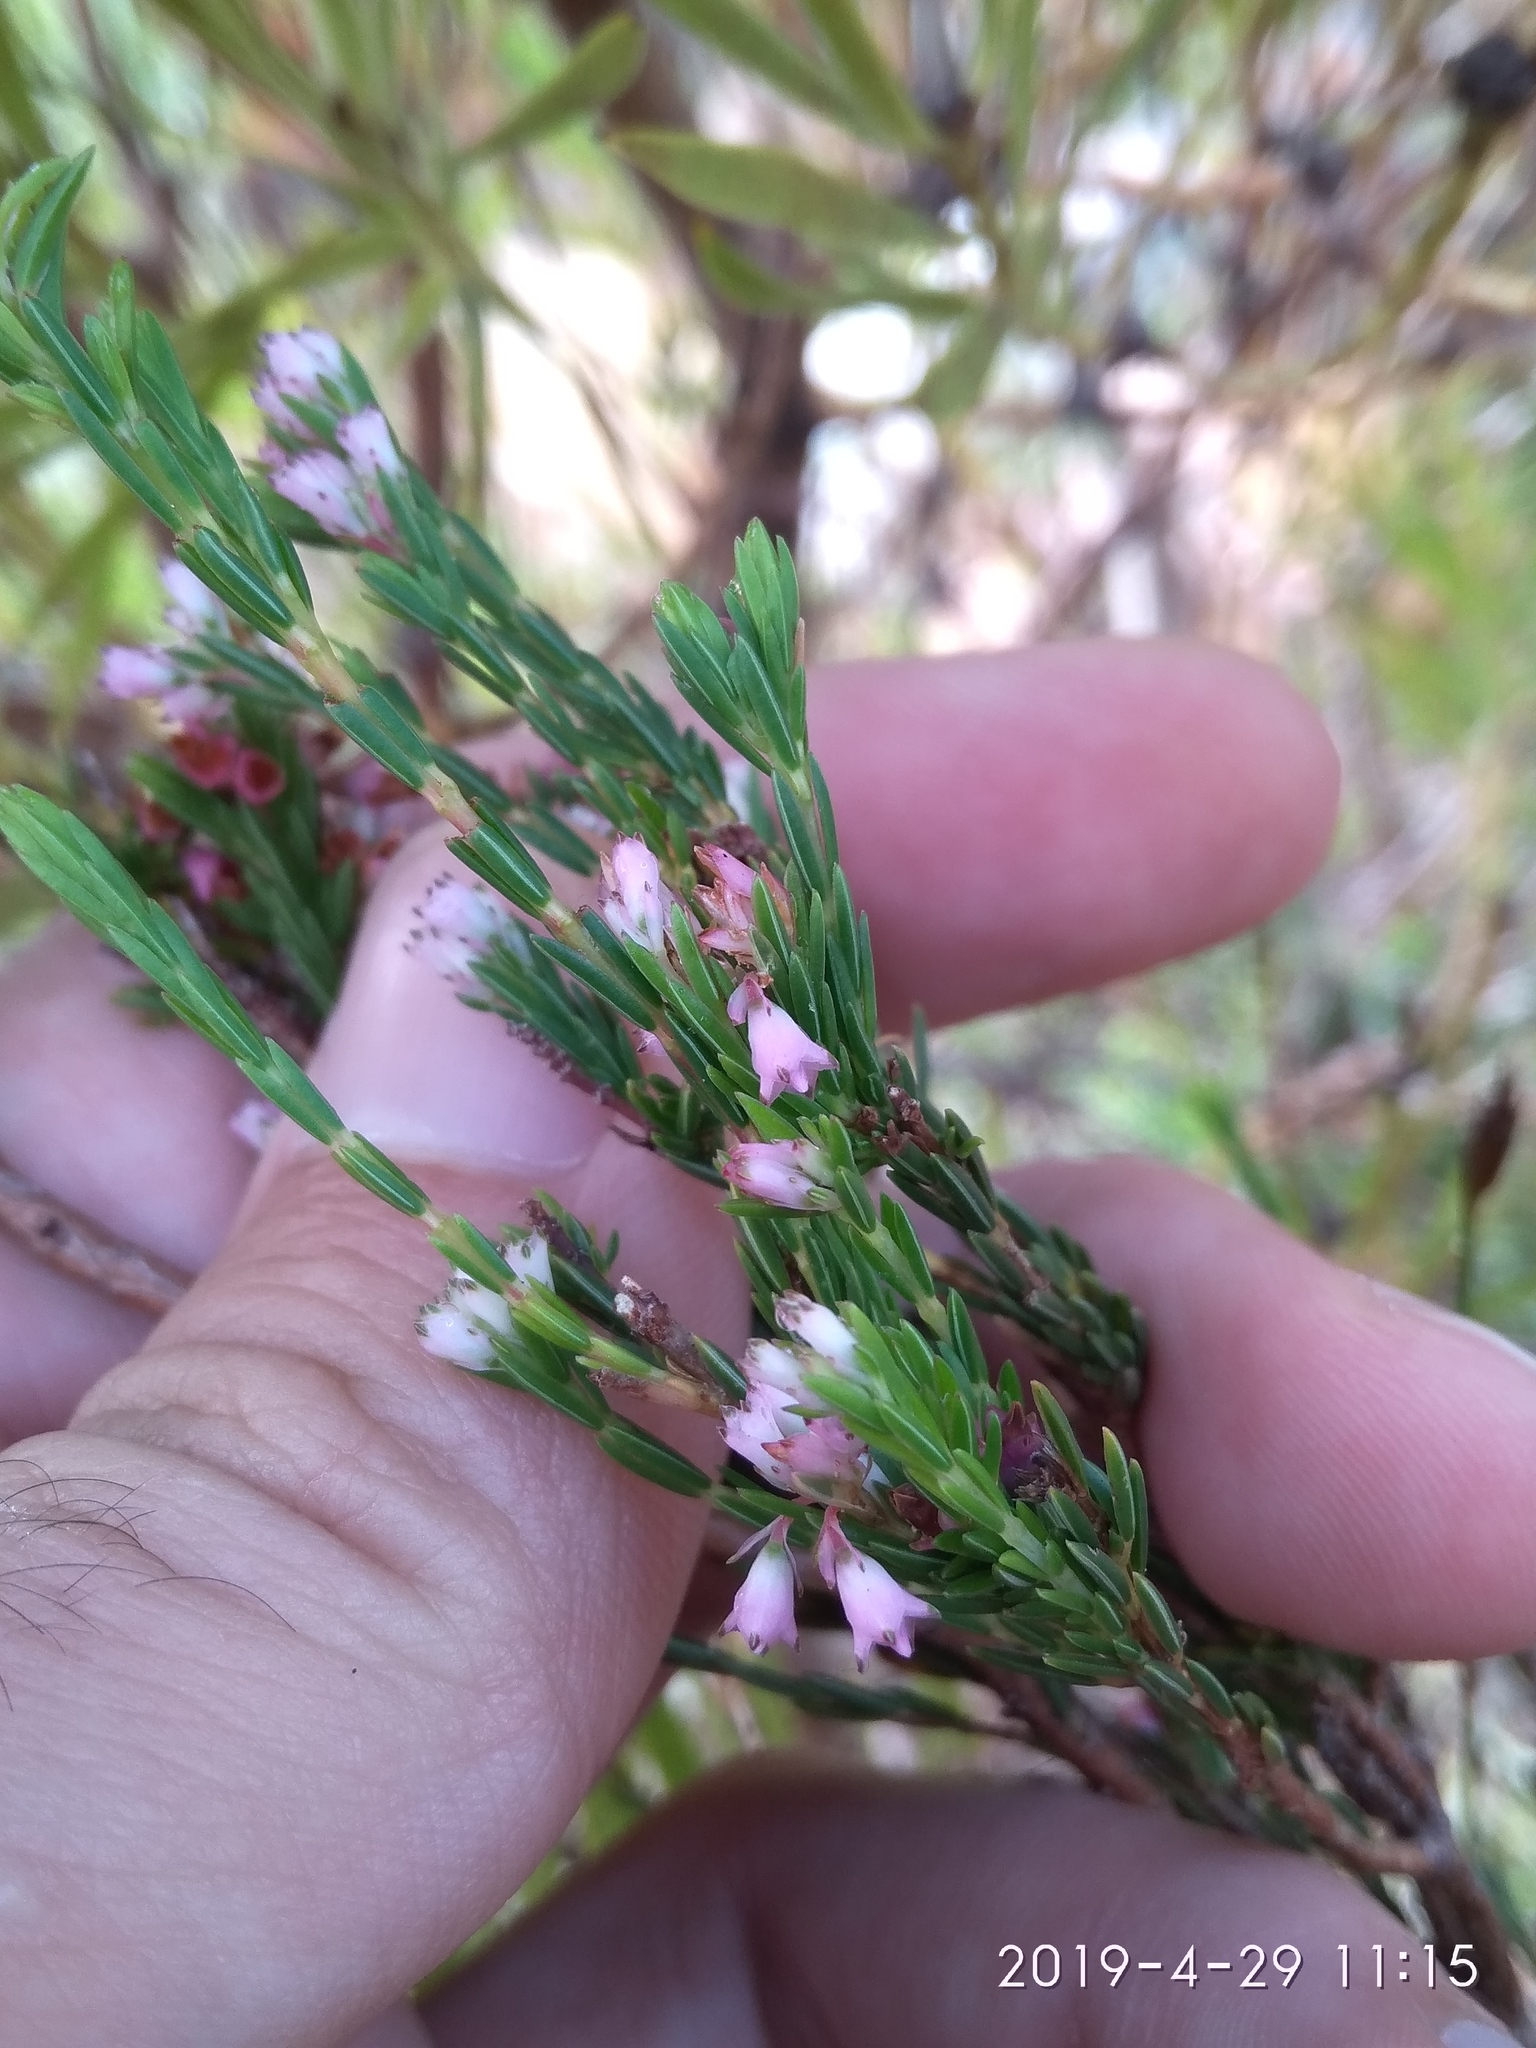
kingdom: Plantae
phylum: Tracheophyta
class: Magnoliopsida
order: Ericales
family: Ericaceae
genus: Erica
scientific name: Erica corifolia
